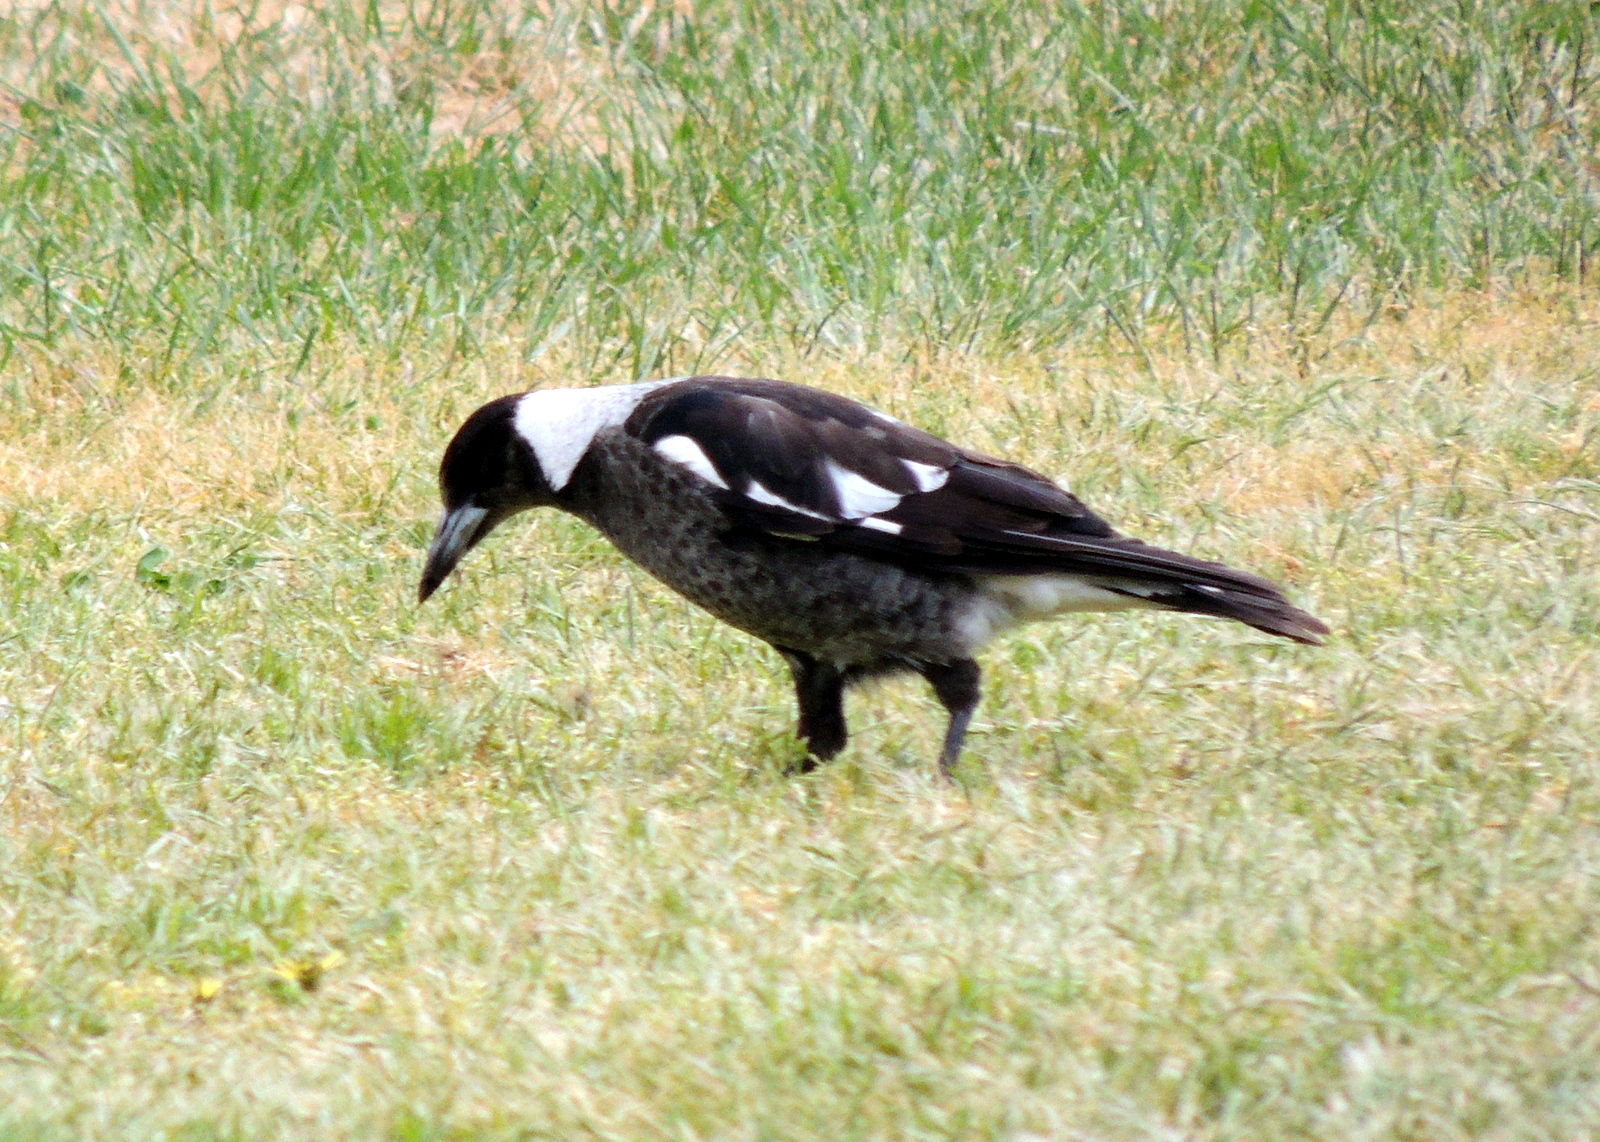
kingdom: Animalia
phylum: Chordata
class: Aves
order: Passeriformes
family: Cracticidae
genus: Gymnorhina
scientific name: Gymnorhina tibicen
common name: Australian magpie
